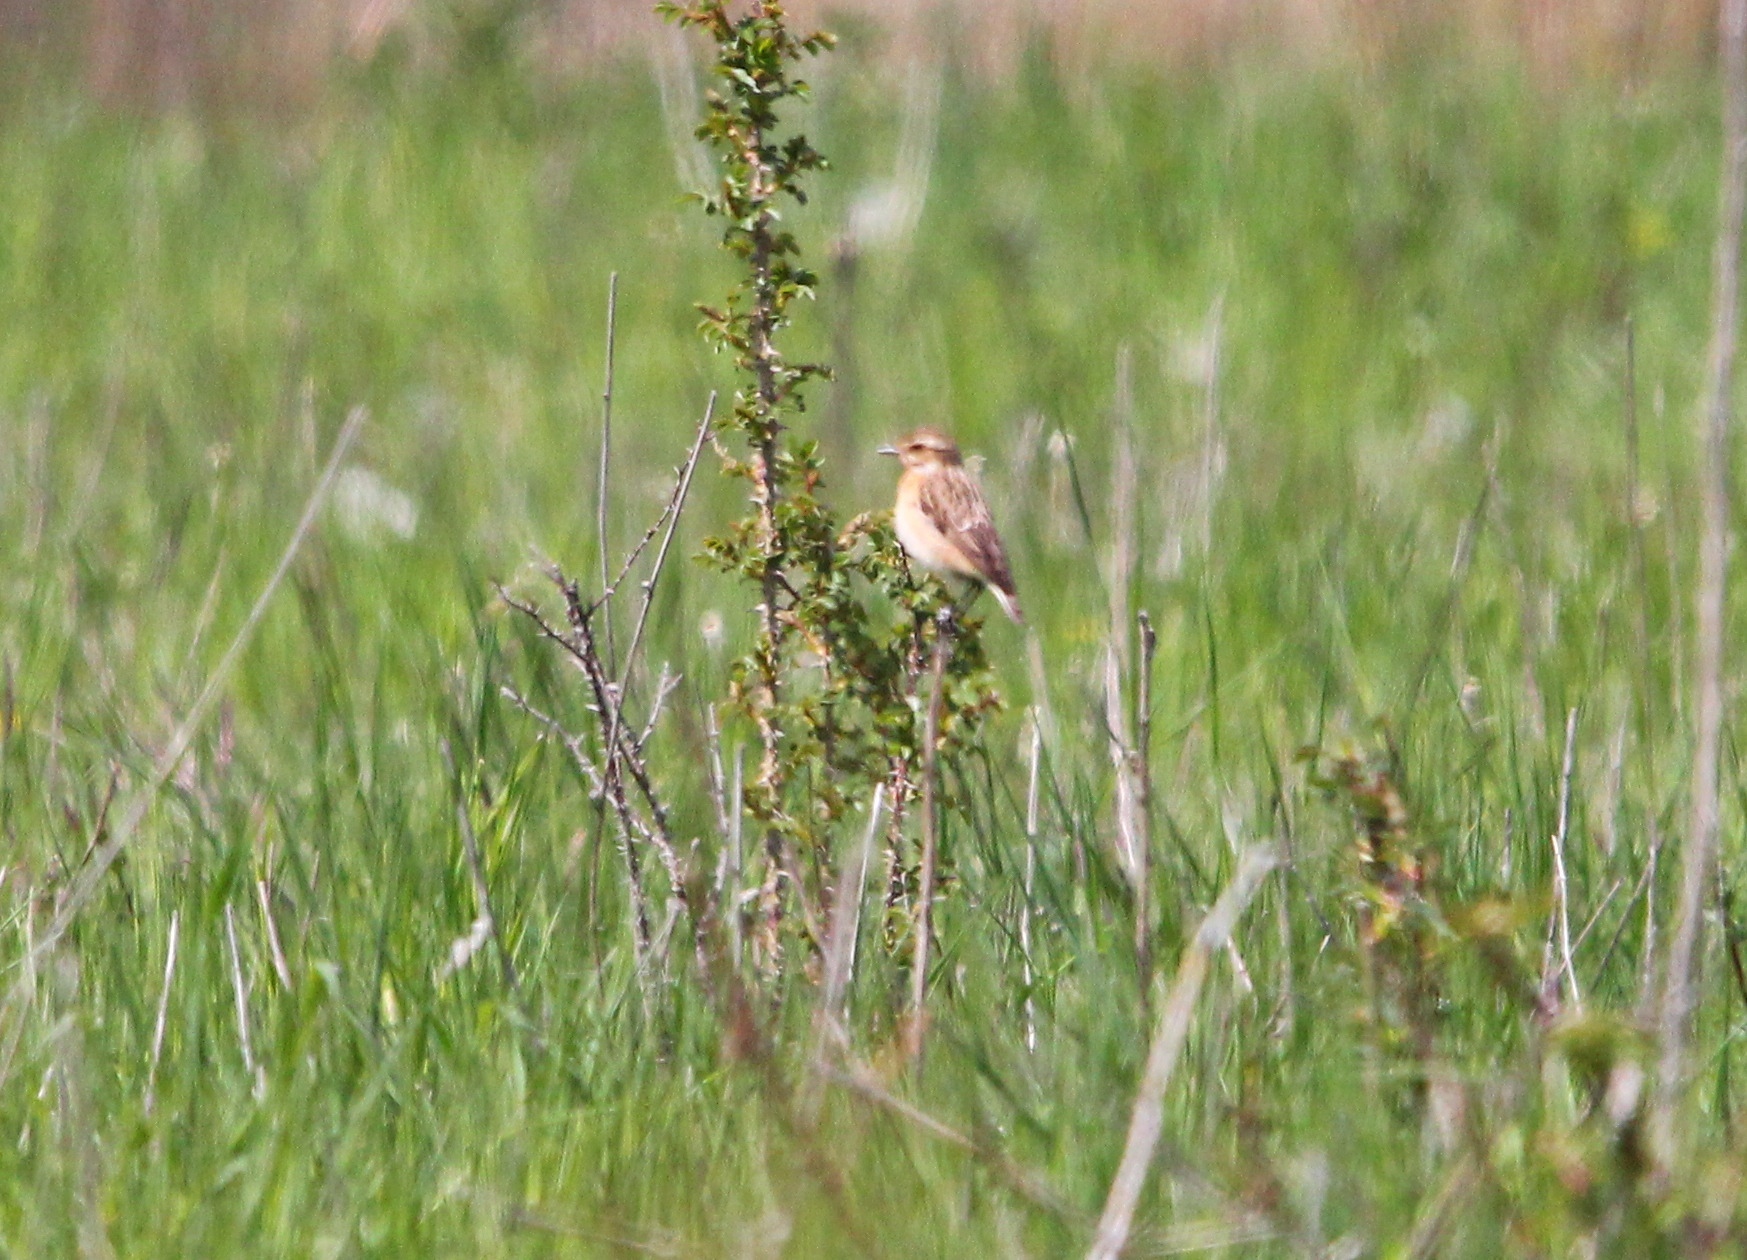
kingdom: Animalia
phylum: Chordata
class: Aves
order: Passeriformes
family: Muscicapidae
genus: Saxicola
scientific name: Saxicola rubetra
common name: Whinchat
